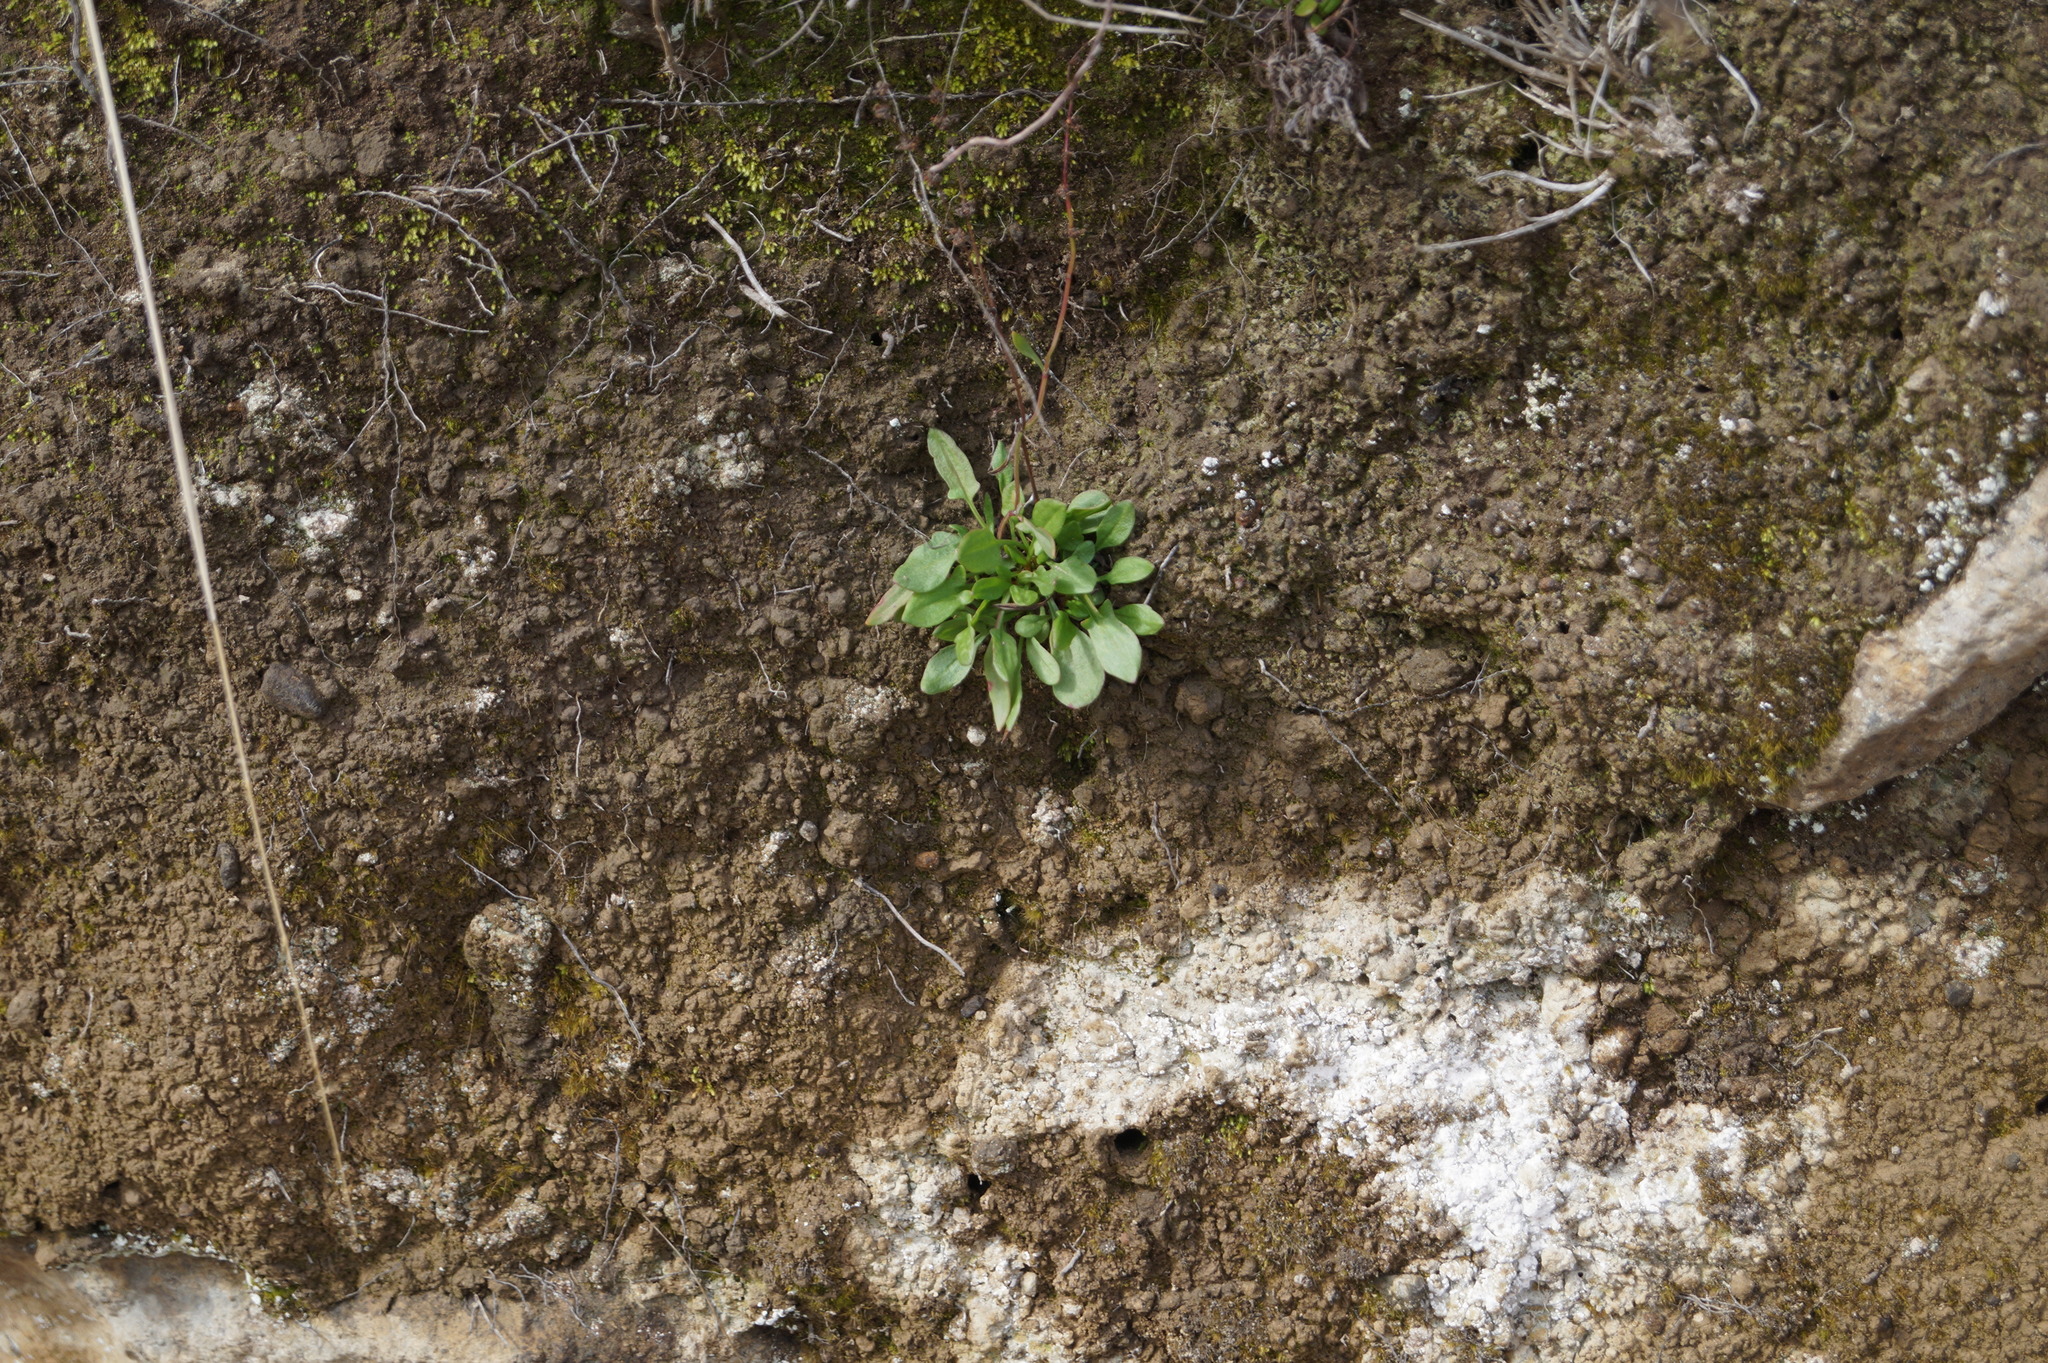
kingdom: Plantae
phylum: Tracheophyta
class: Magnoliopsida
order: Caryophyllales
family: Polygonaceae
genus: Rumex
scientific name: Rumex acetosella
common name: Common sheep sorrel
